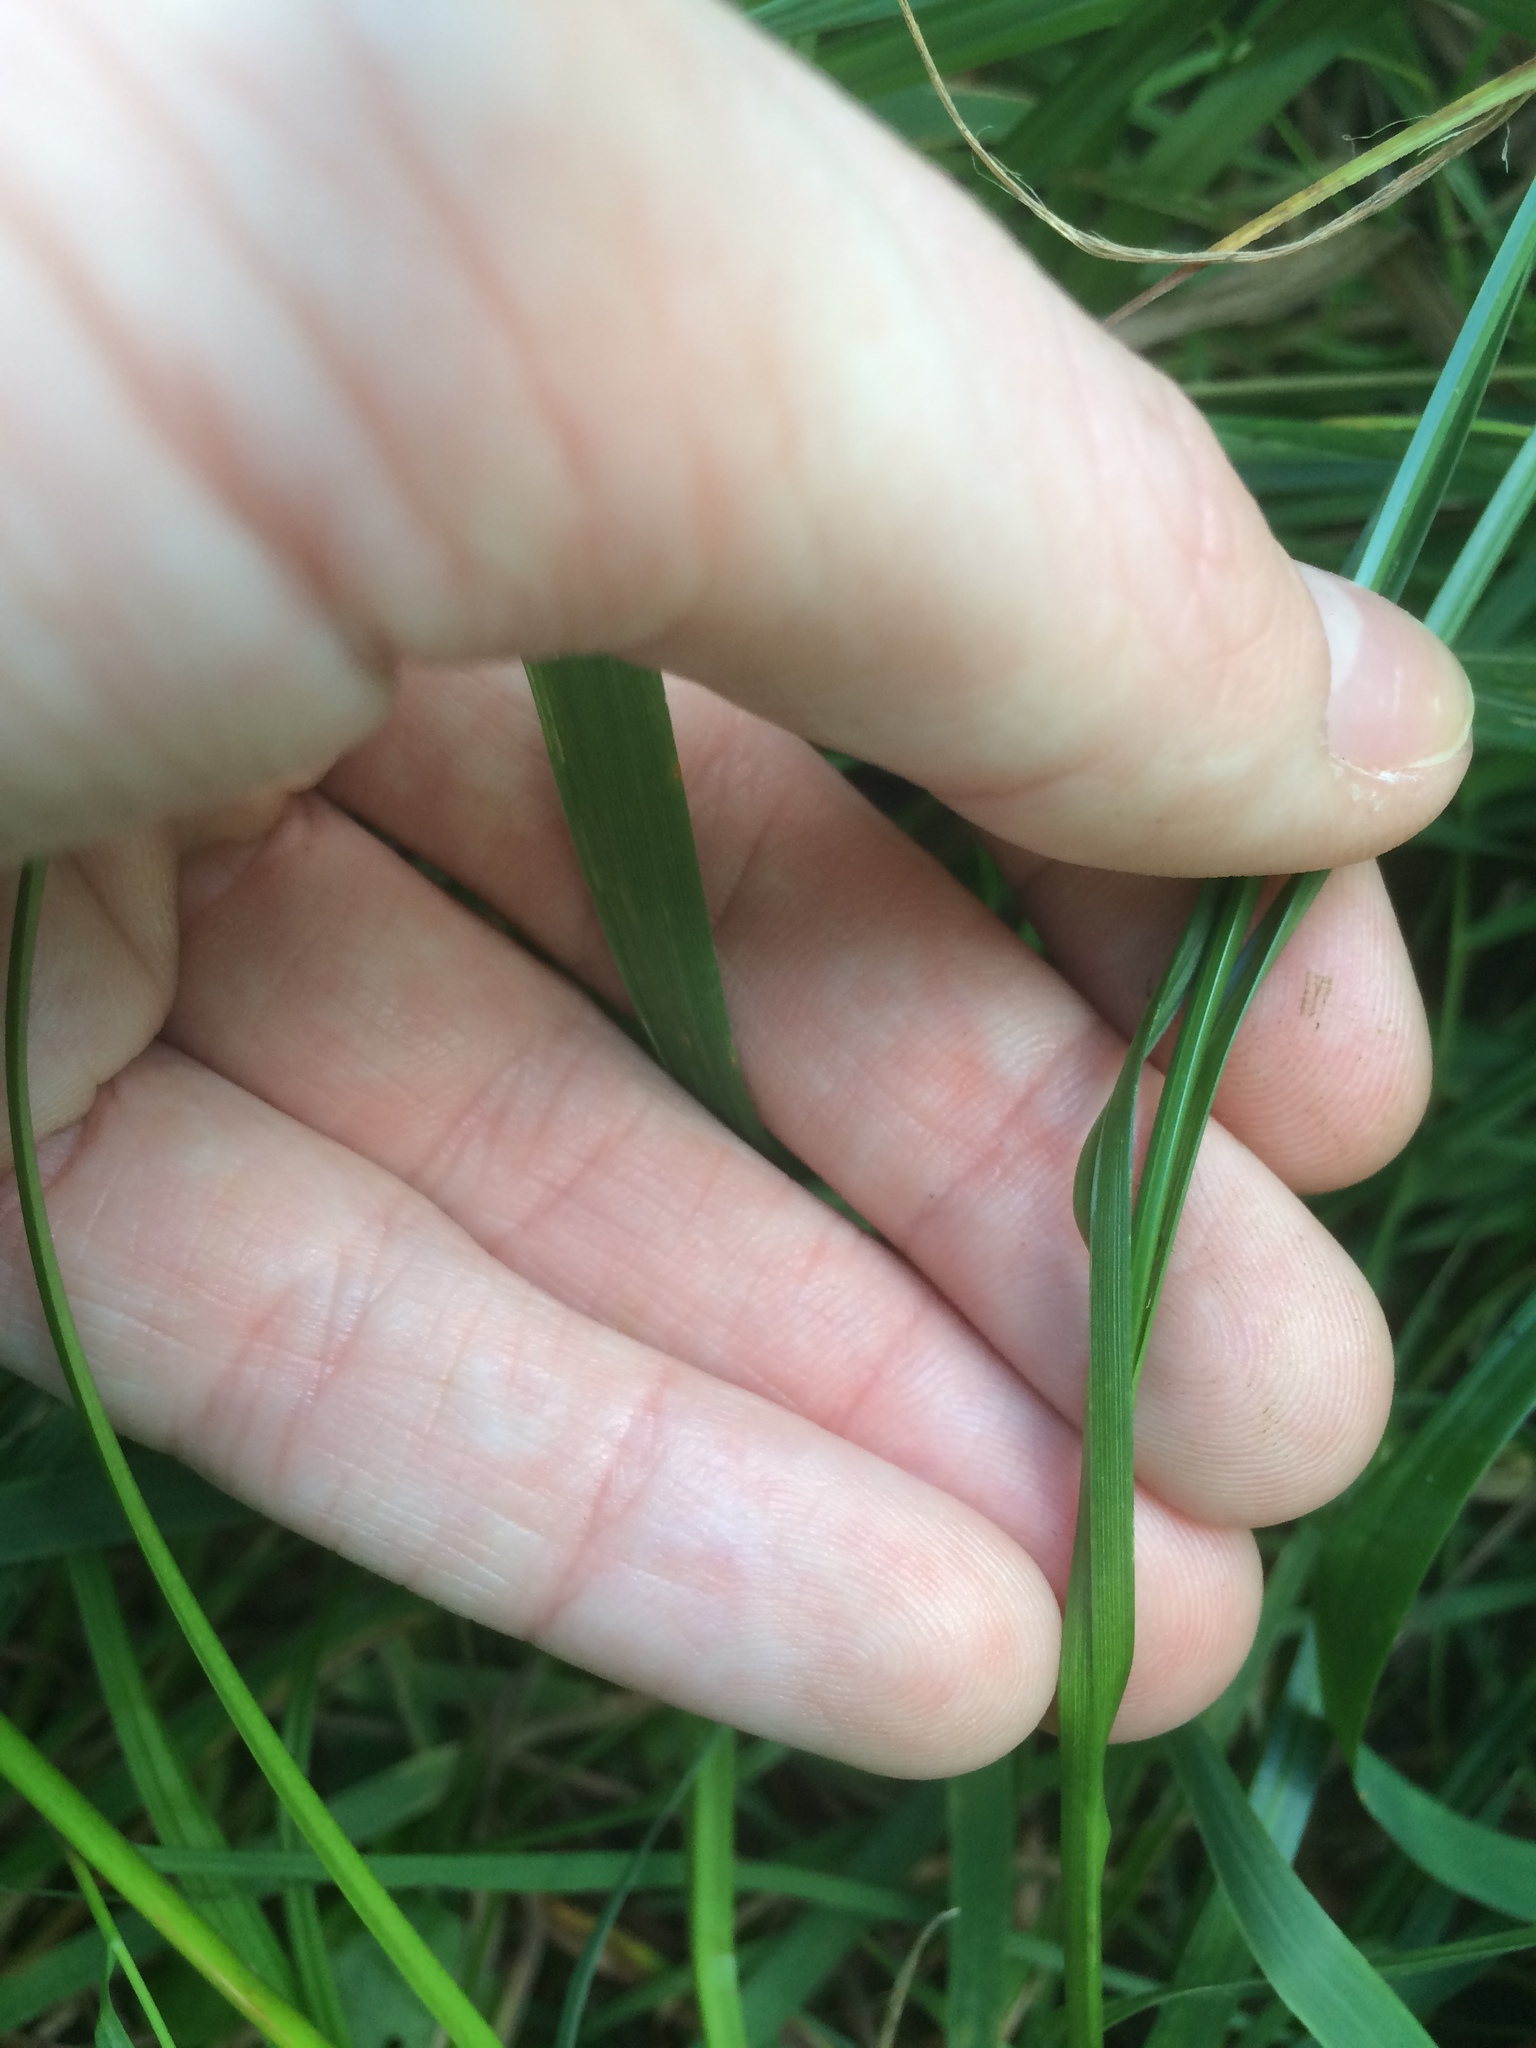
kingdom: Plantae
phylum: Tracheophyta
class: Liliopsida
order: Poales
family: Cyperaceae
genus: Carex
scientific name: Carex vulpinoidea
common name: American fox-sedge
